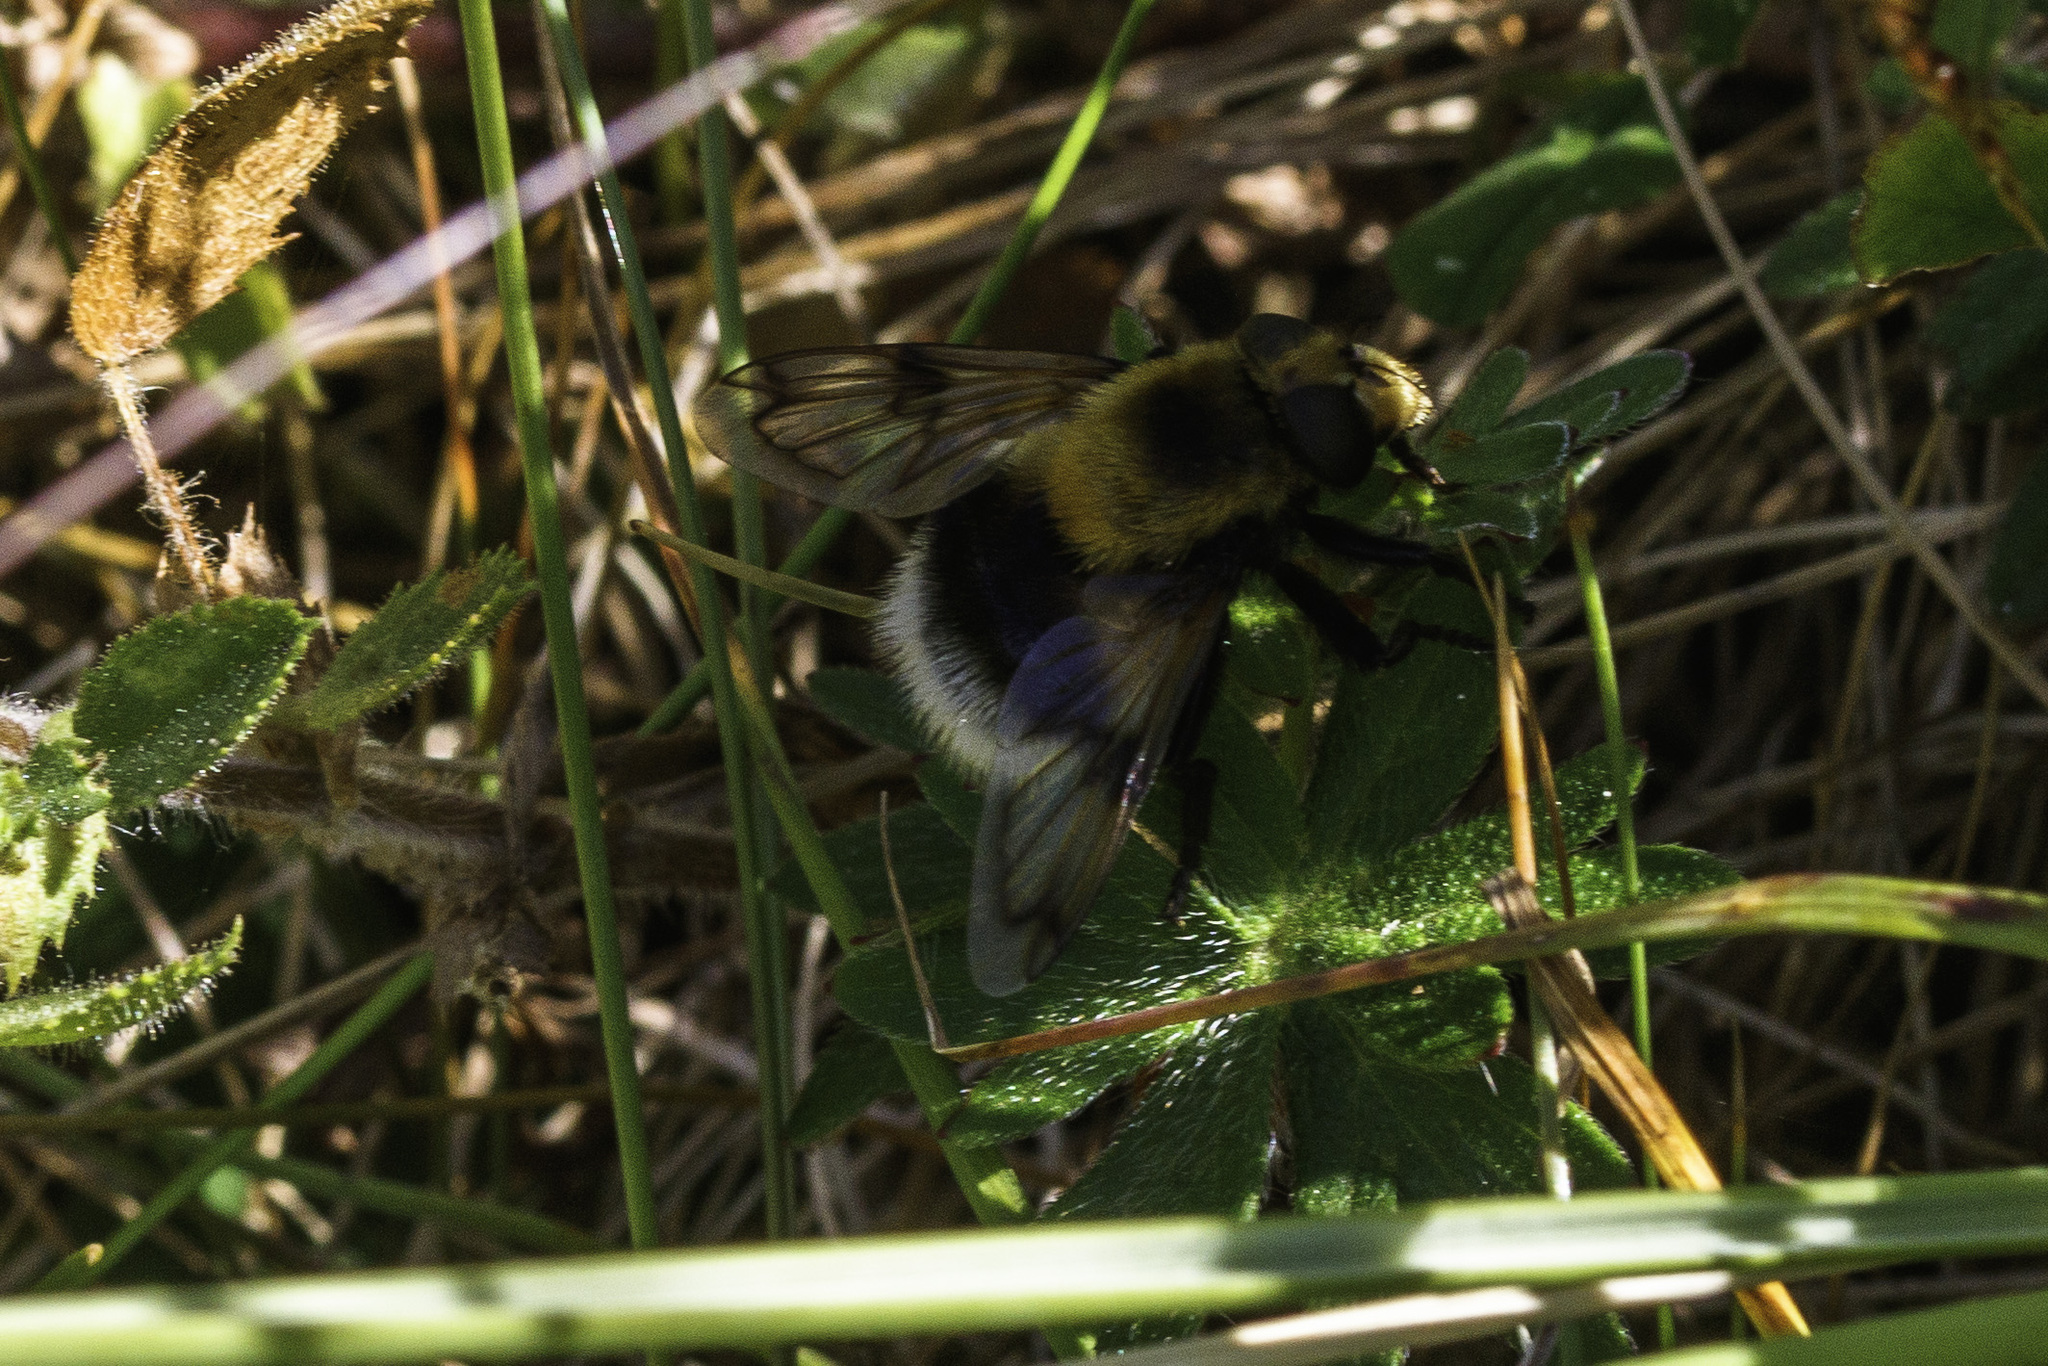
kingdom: Animalia
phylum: Arthropoda
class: Insecta
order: Diptera
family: Syrphidae
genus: Volucella
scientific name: Volucella bombylans
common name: Bumble bee hover fly
